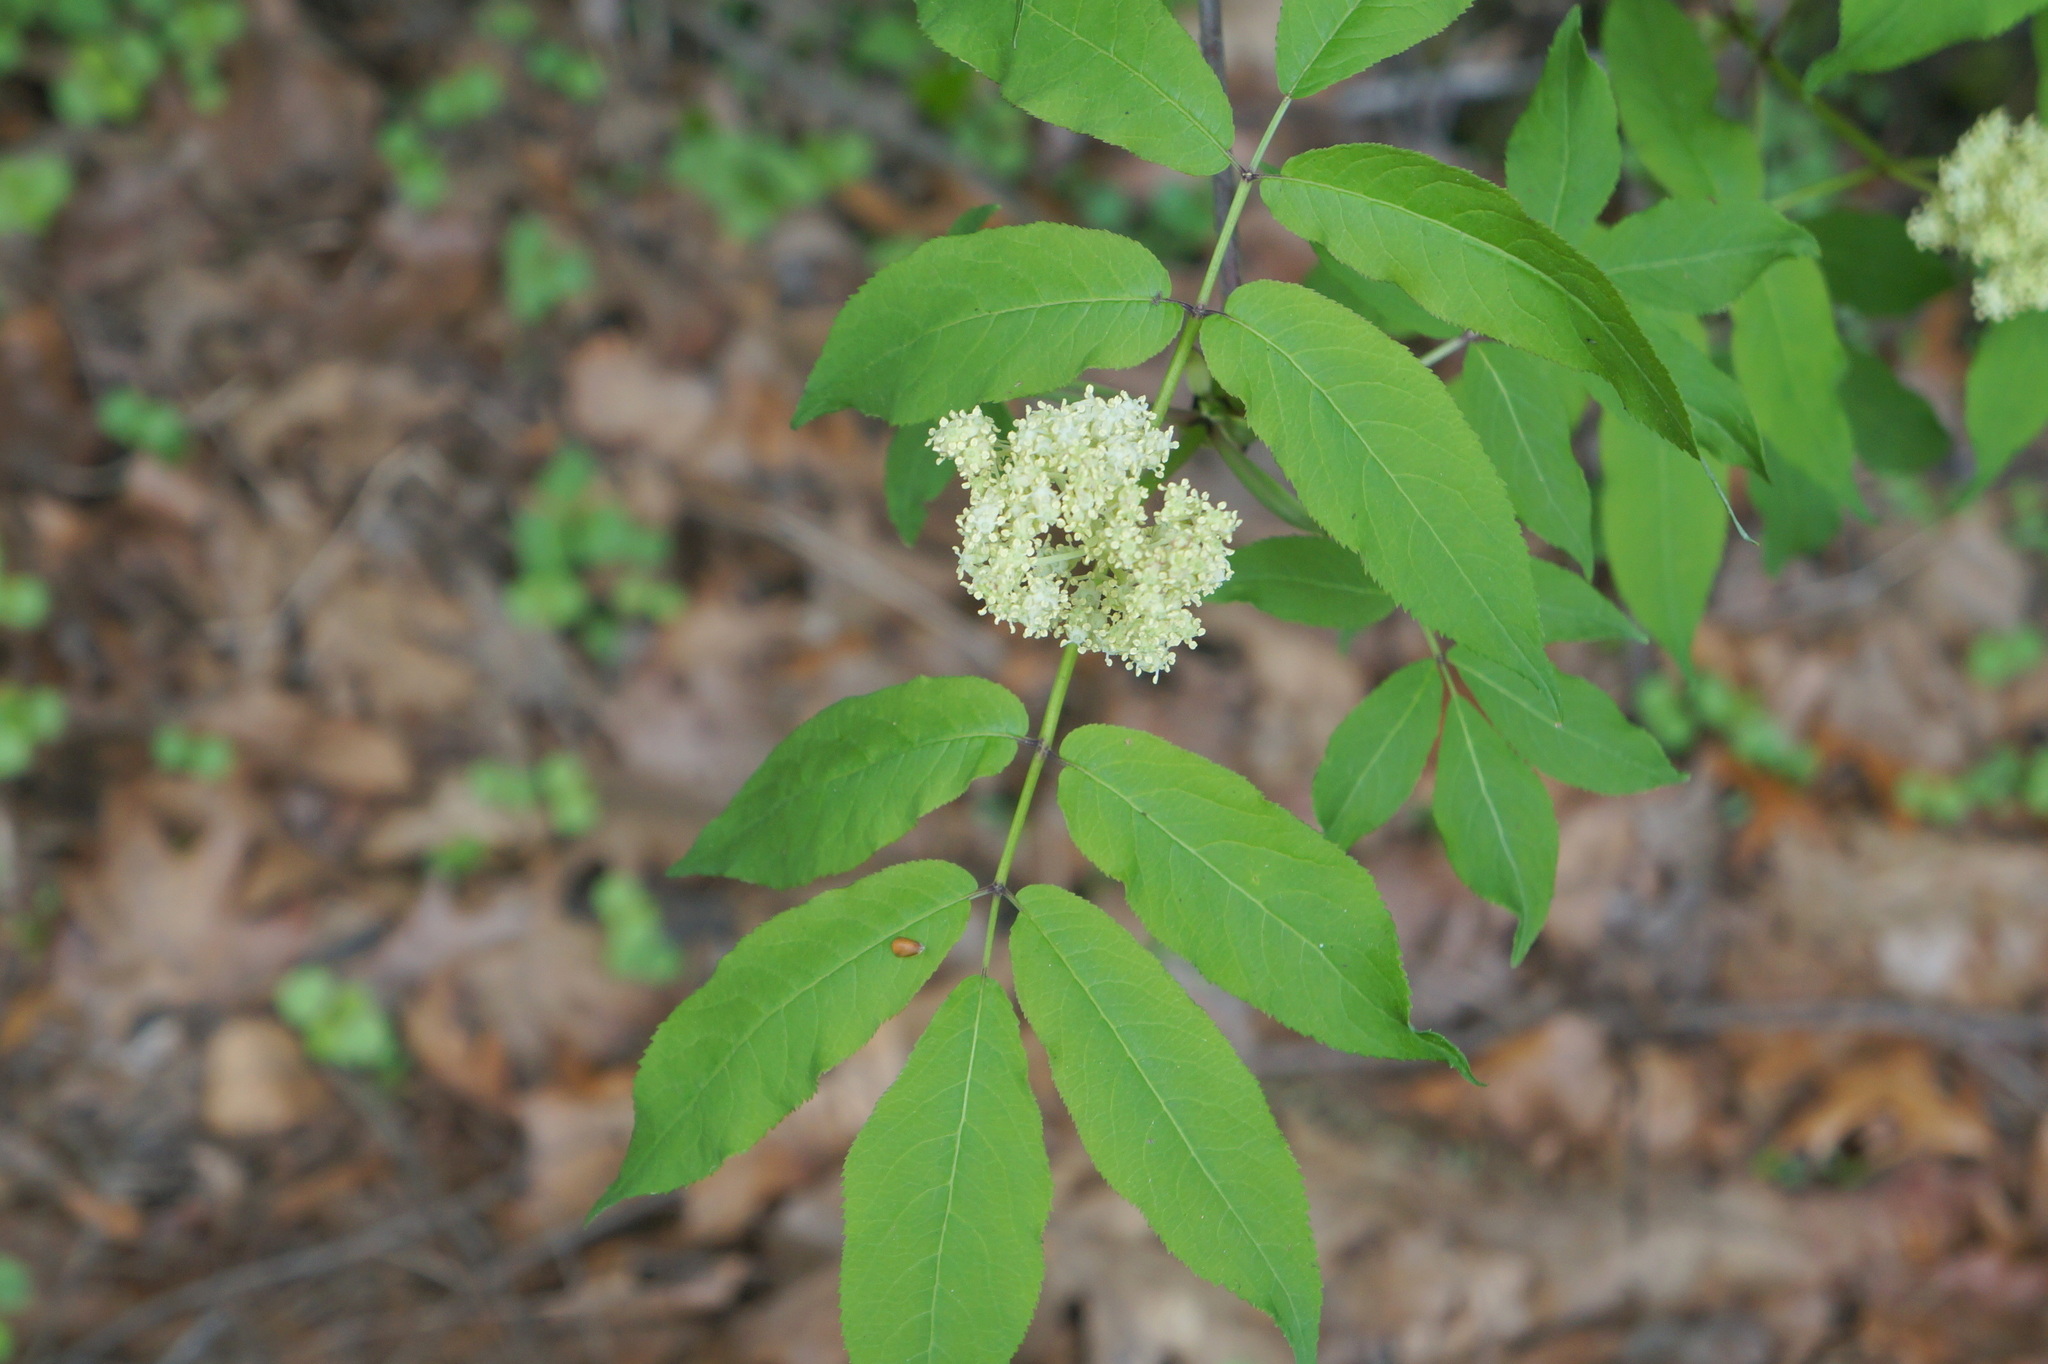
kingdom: Plantae
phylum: Tracheophyta
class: Magnoliopsida
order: Dipsacales
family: Viburnaceae
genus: Sambucus
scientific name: Sambucus racemosa
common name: Red-berried elder
